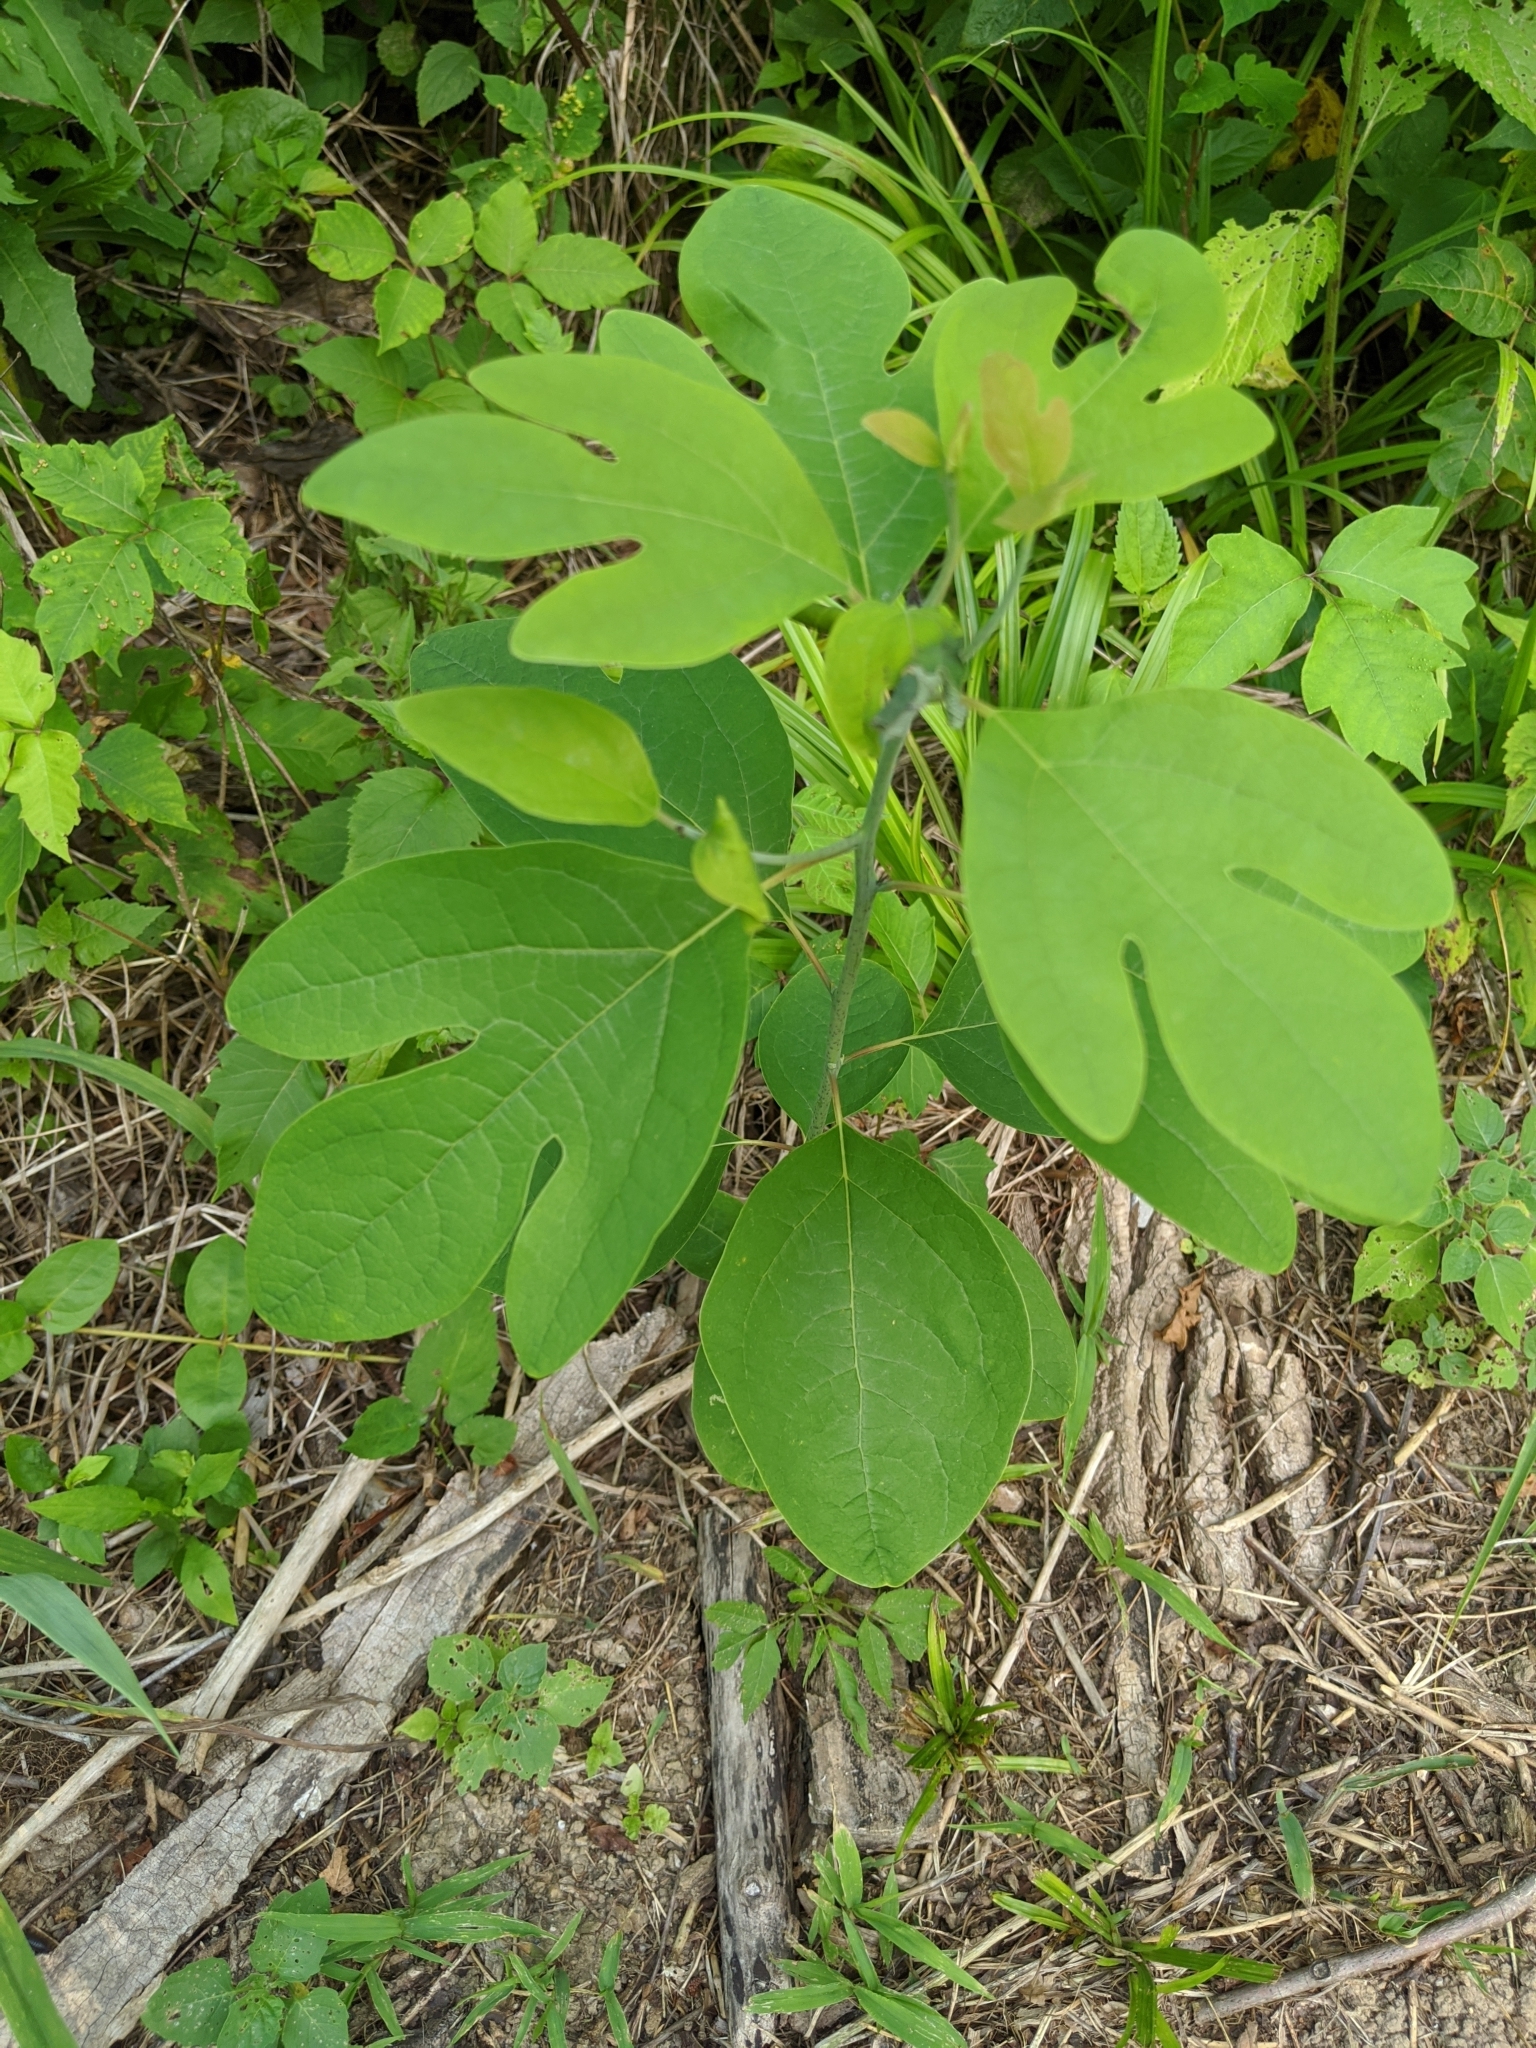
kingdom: Plantae
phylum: Tracheophyta
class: Magnoliopsida
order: Laurales
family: Lauraceae
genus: Sassafras
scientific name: Sassafras albidum
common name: Sassafras
